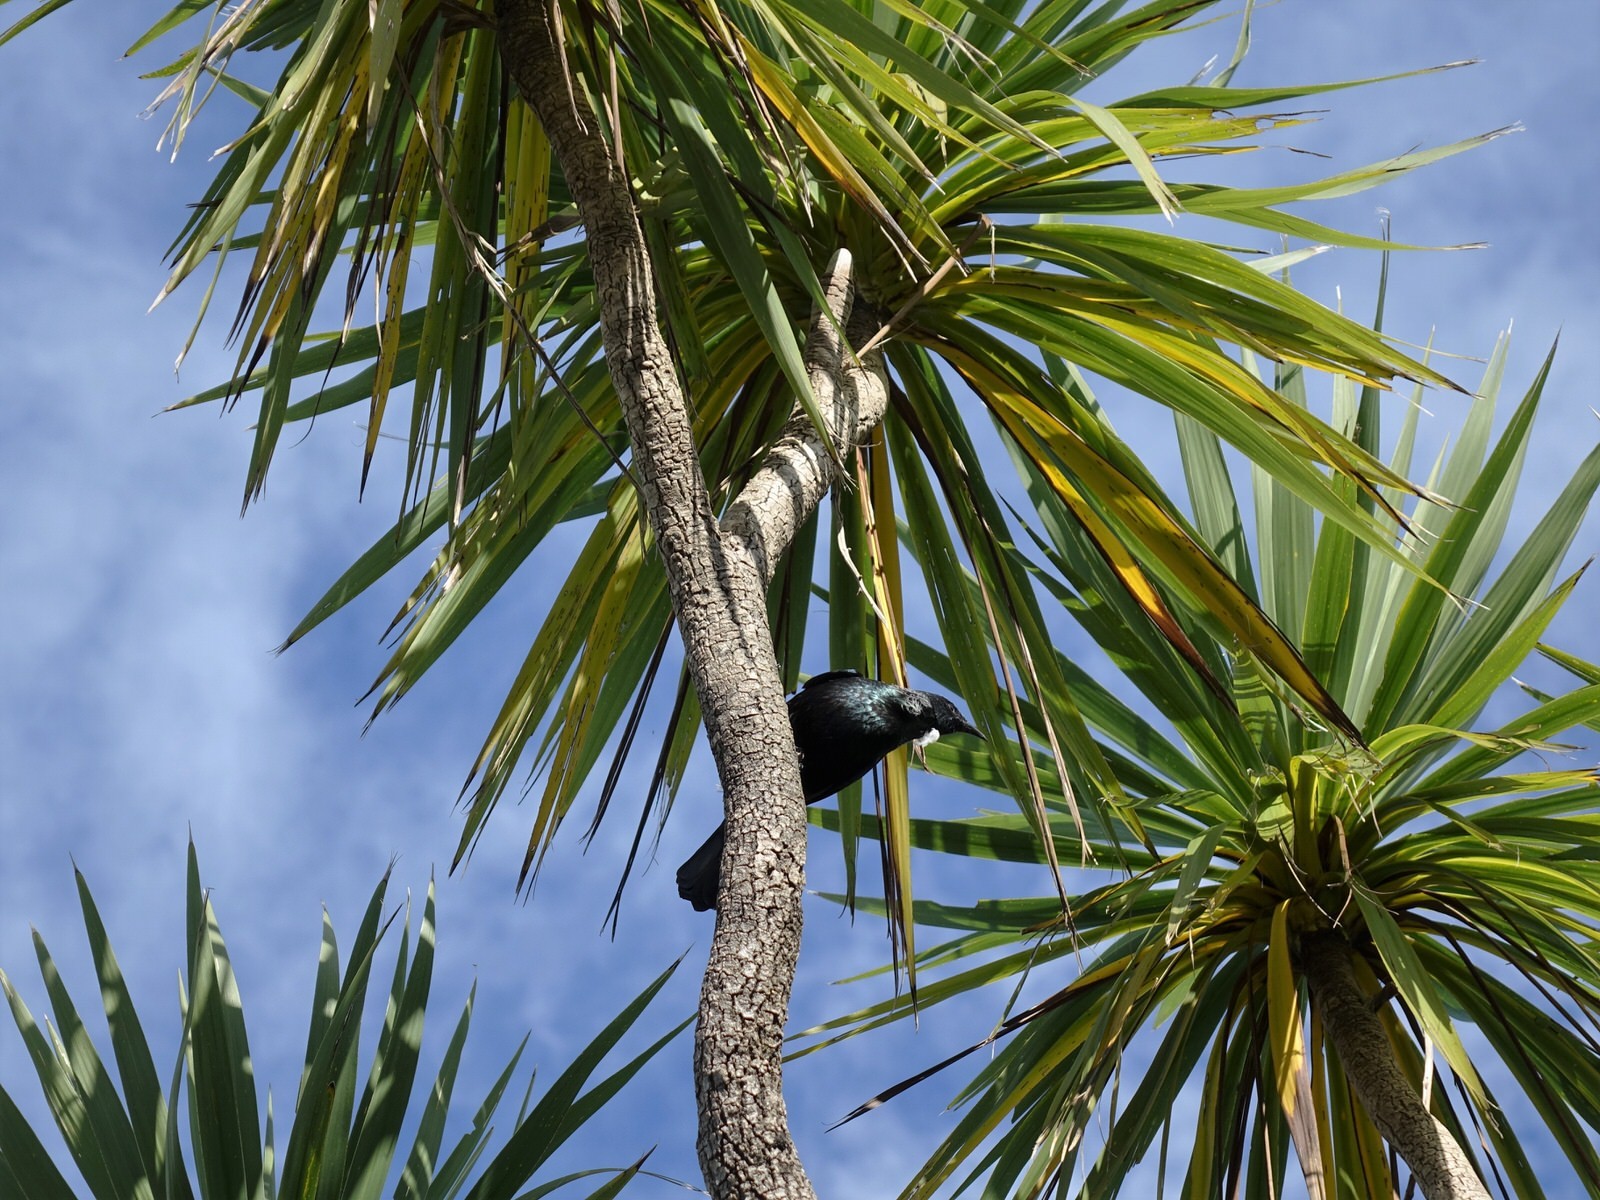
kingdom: Animalia
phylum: Chordata
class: Aves
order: Passeriformes
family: Meliphagidae
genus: Prosthemadera
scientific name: Prosthemadera novaeseelandiae
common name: Tui
